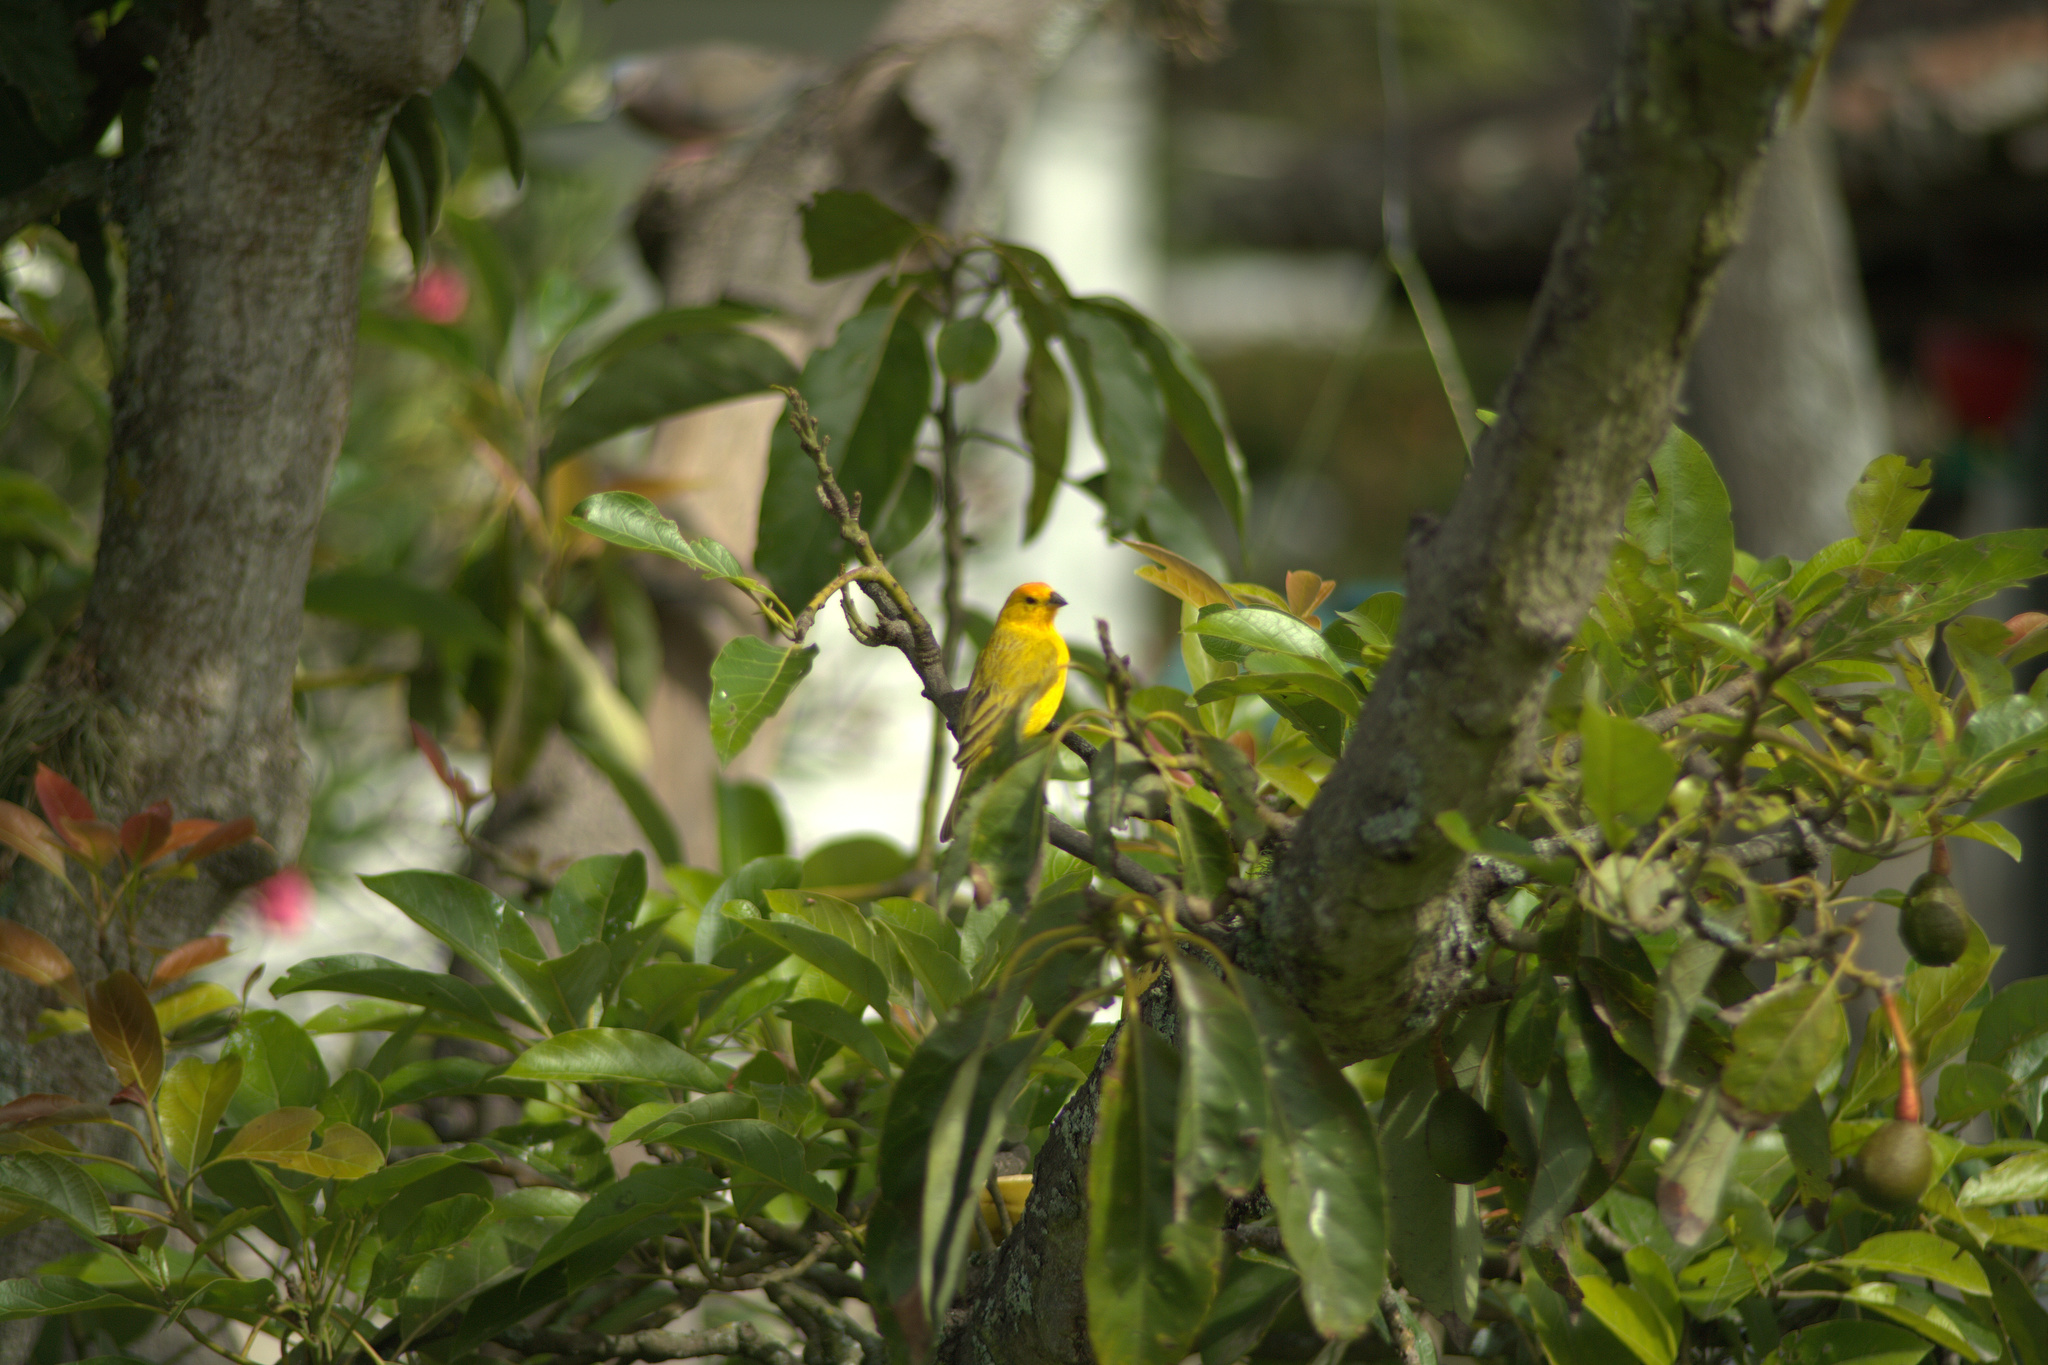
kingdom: Animalia
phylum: Chordata
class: Aves
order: Passeriformes
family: Thraupidae
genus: Sicalis
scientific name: Sicalis flaveola
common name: Saffron finch
